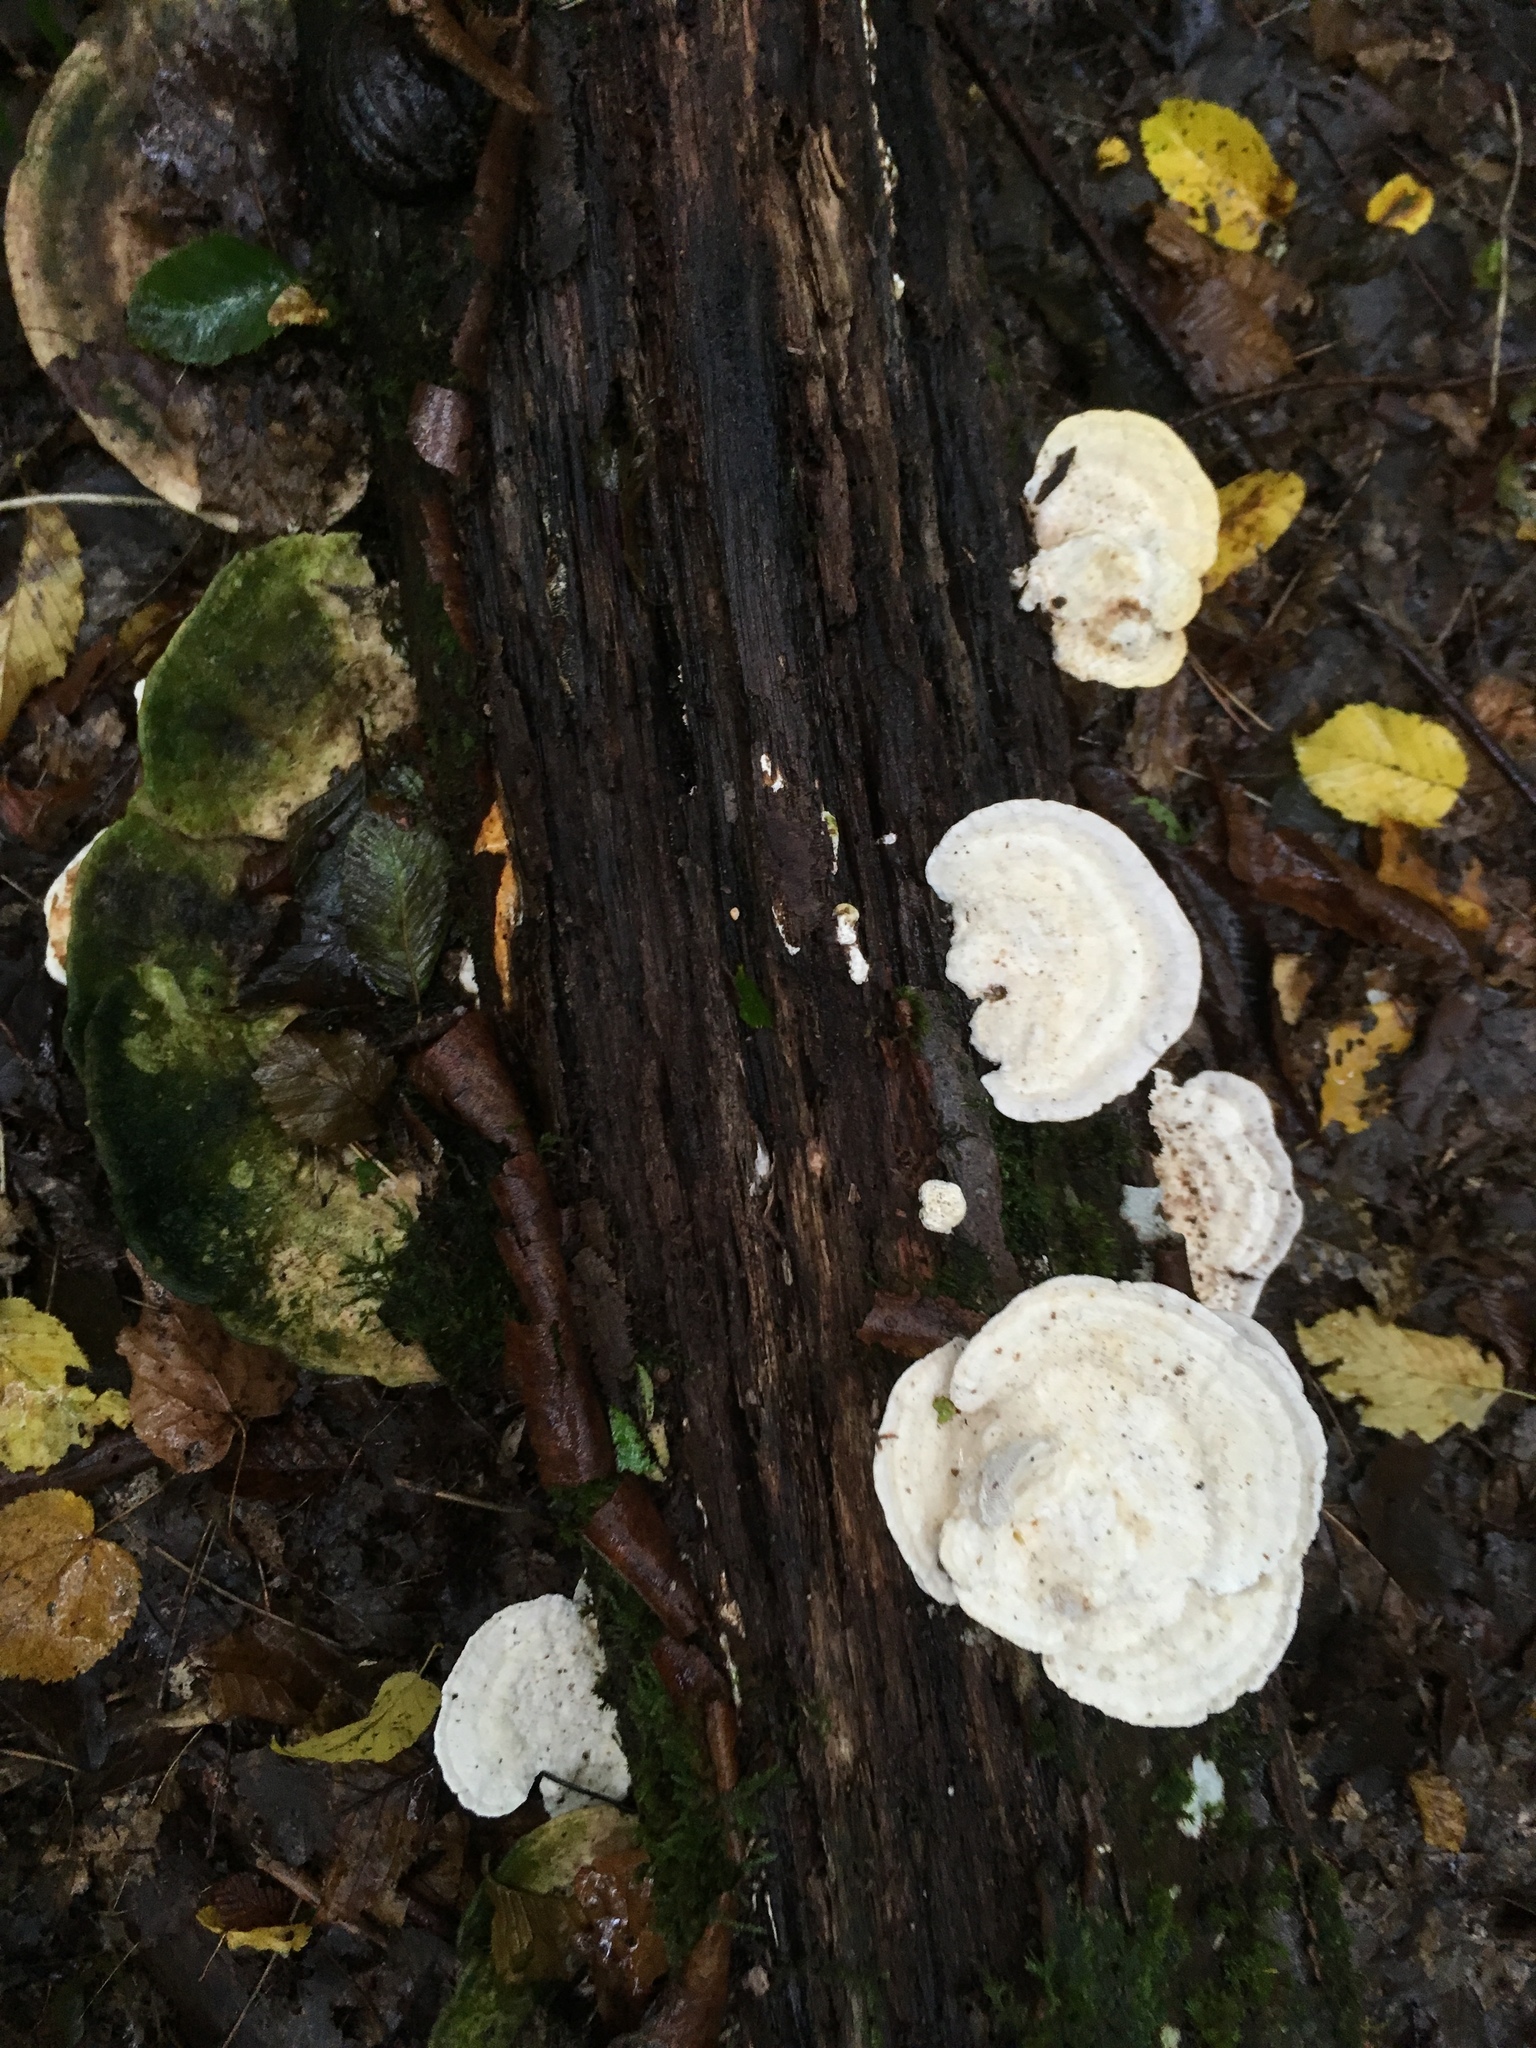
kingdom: Fungi
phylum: Basidiomycota
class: Agaricomycetes
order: Polyporales
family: Polyporaceae
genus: Trametes
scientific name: Trametes gibbosa
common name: Lumpy bracket
